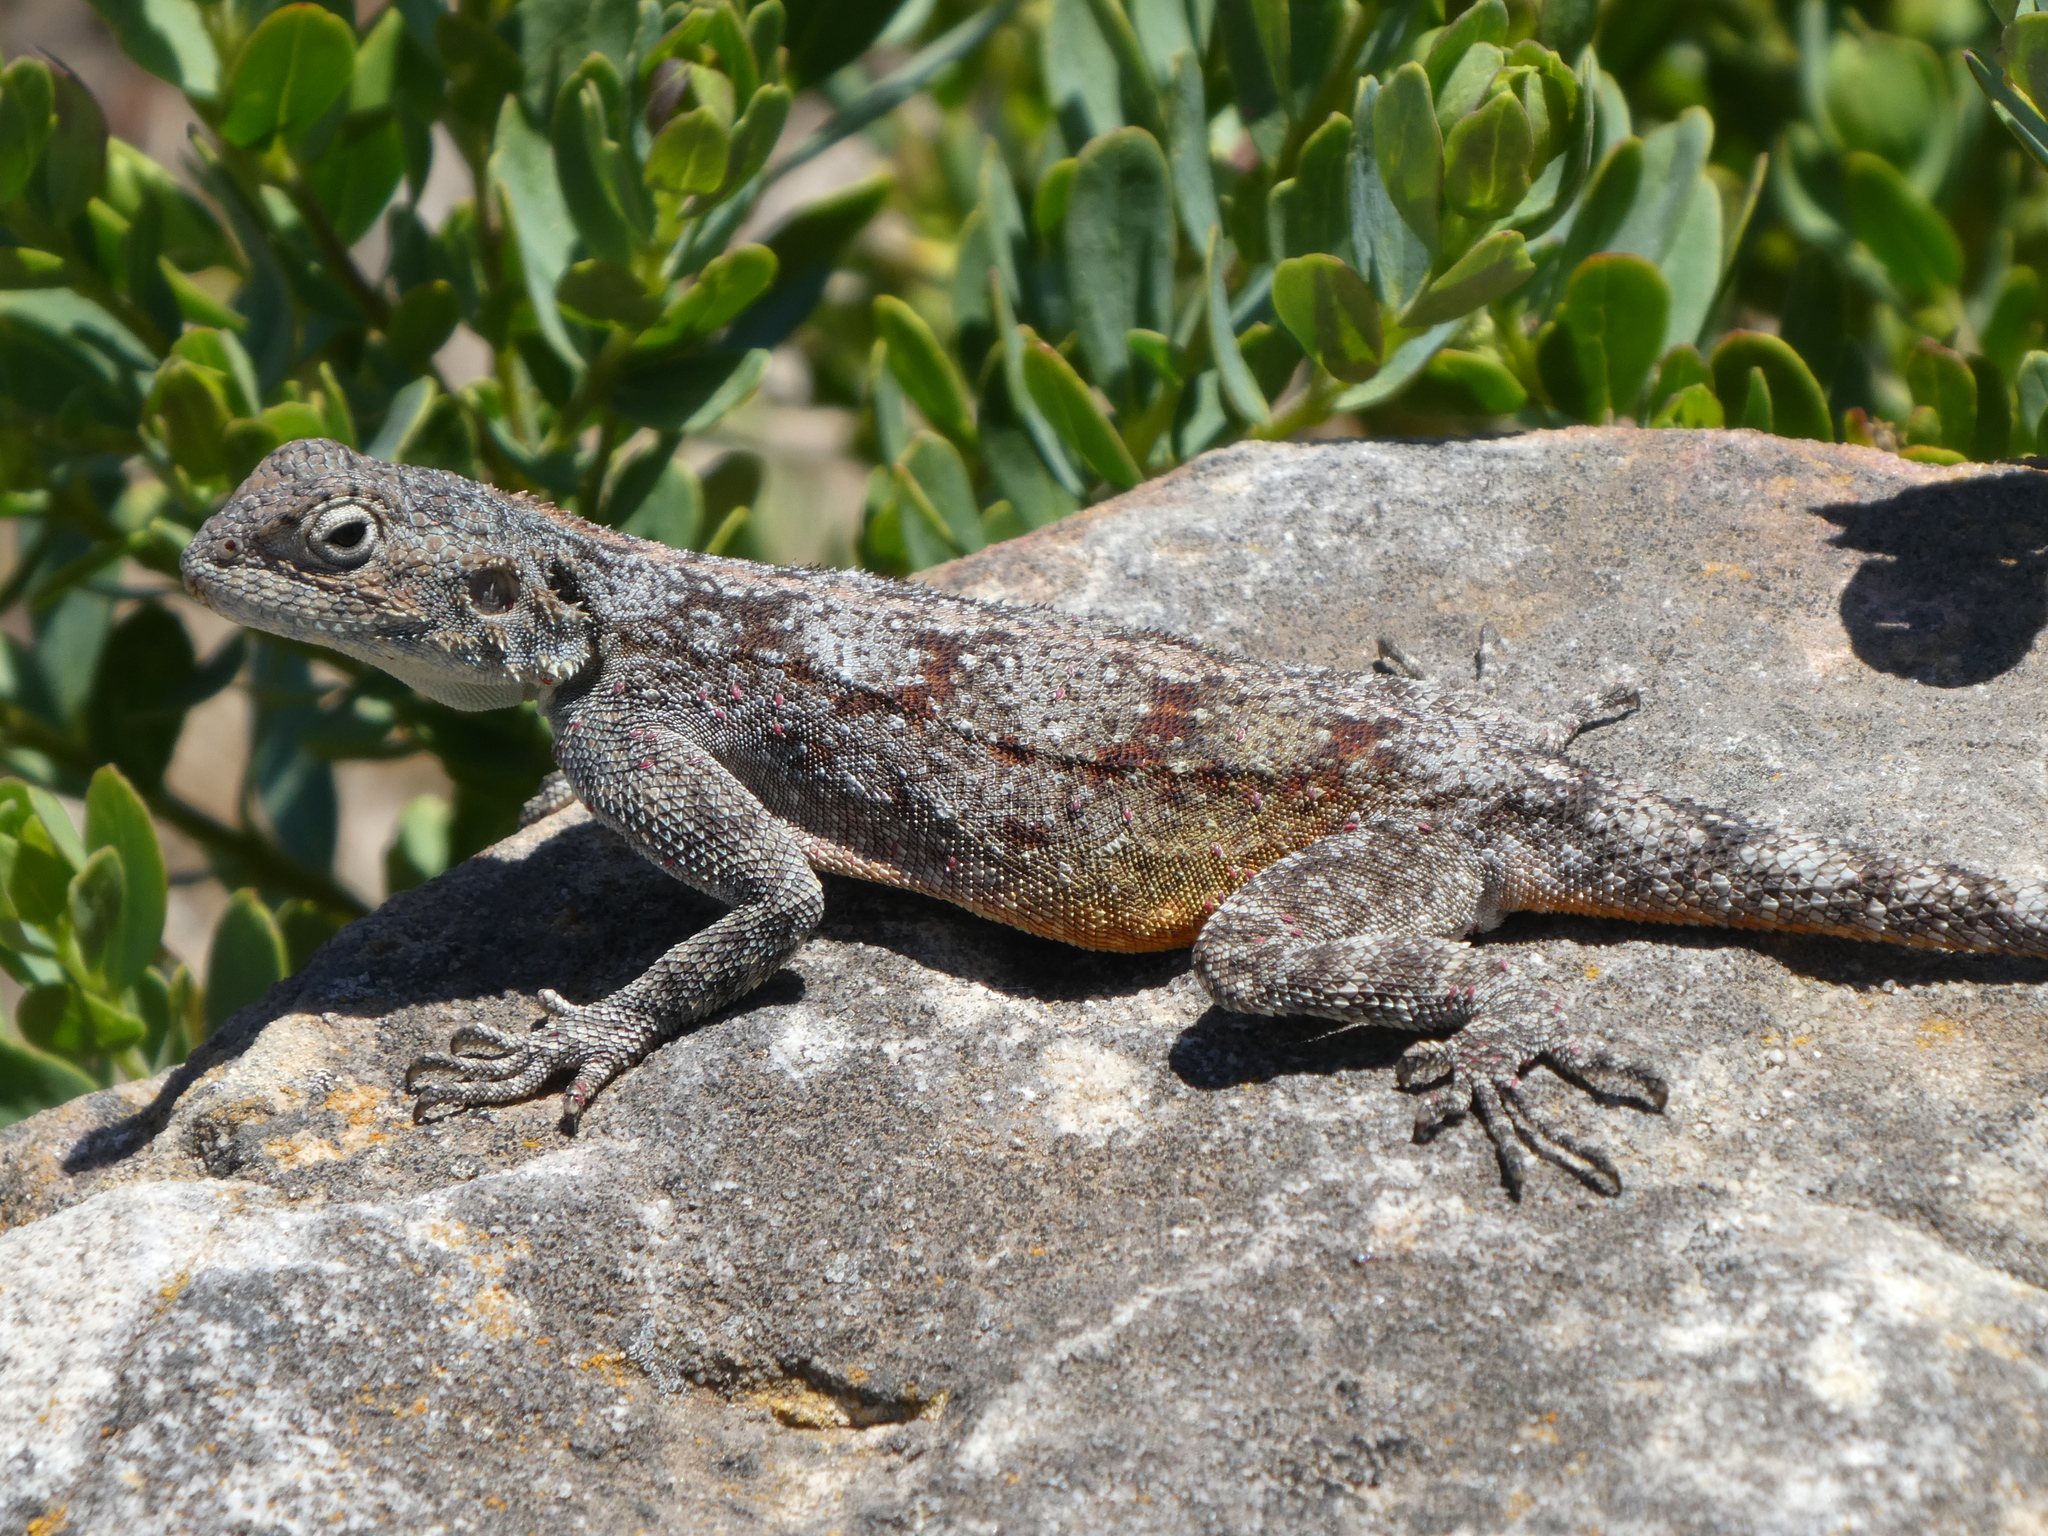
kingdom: Animalia
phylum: Chordata
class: Squamata
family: Agamidae
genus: Agama
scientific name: Agama atra
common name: Southern african rock agama
